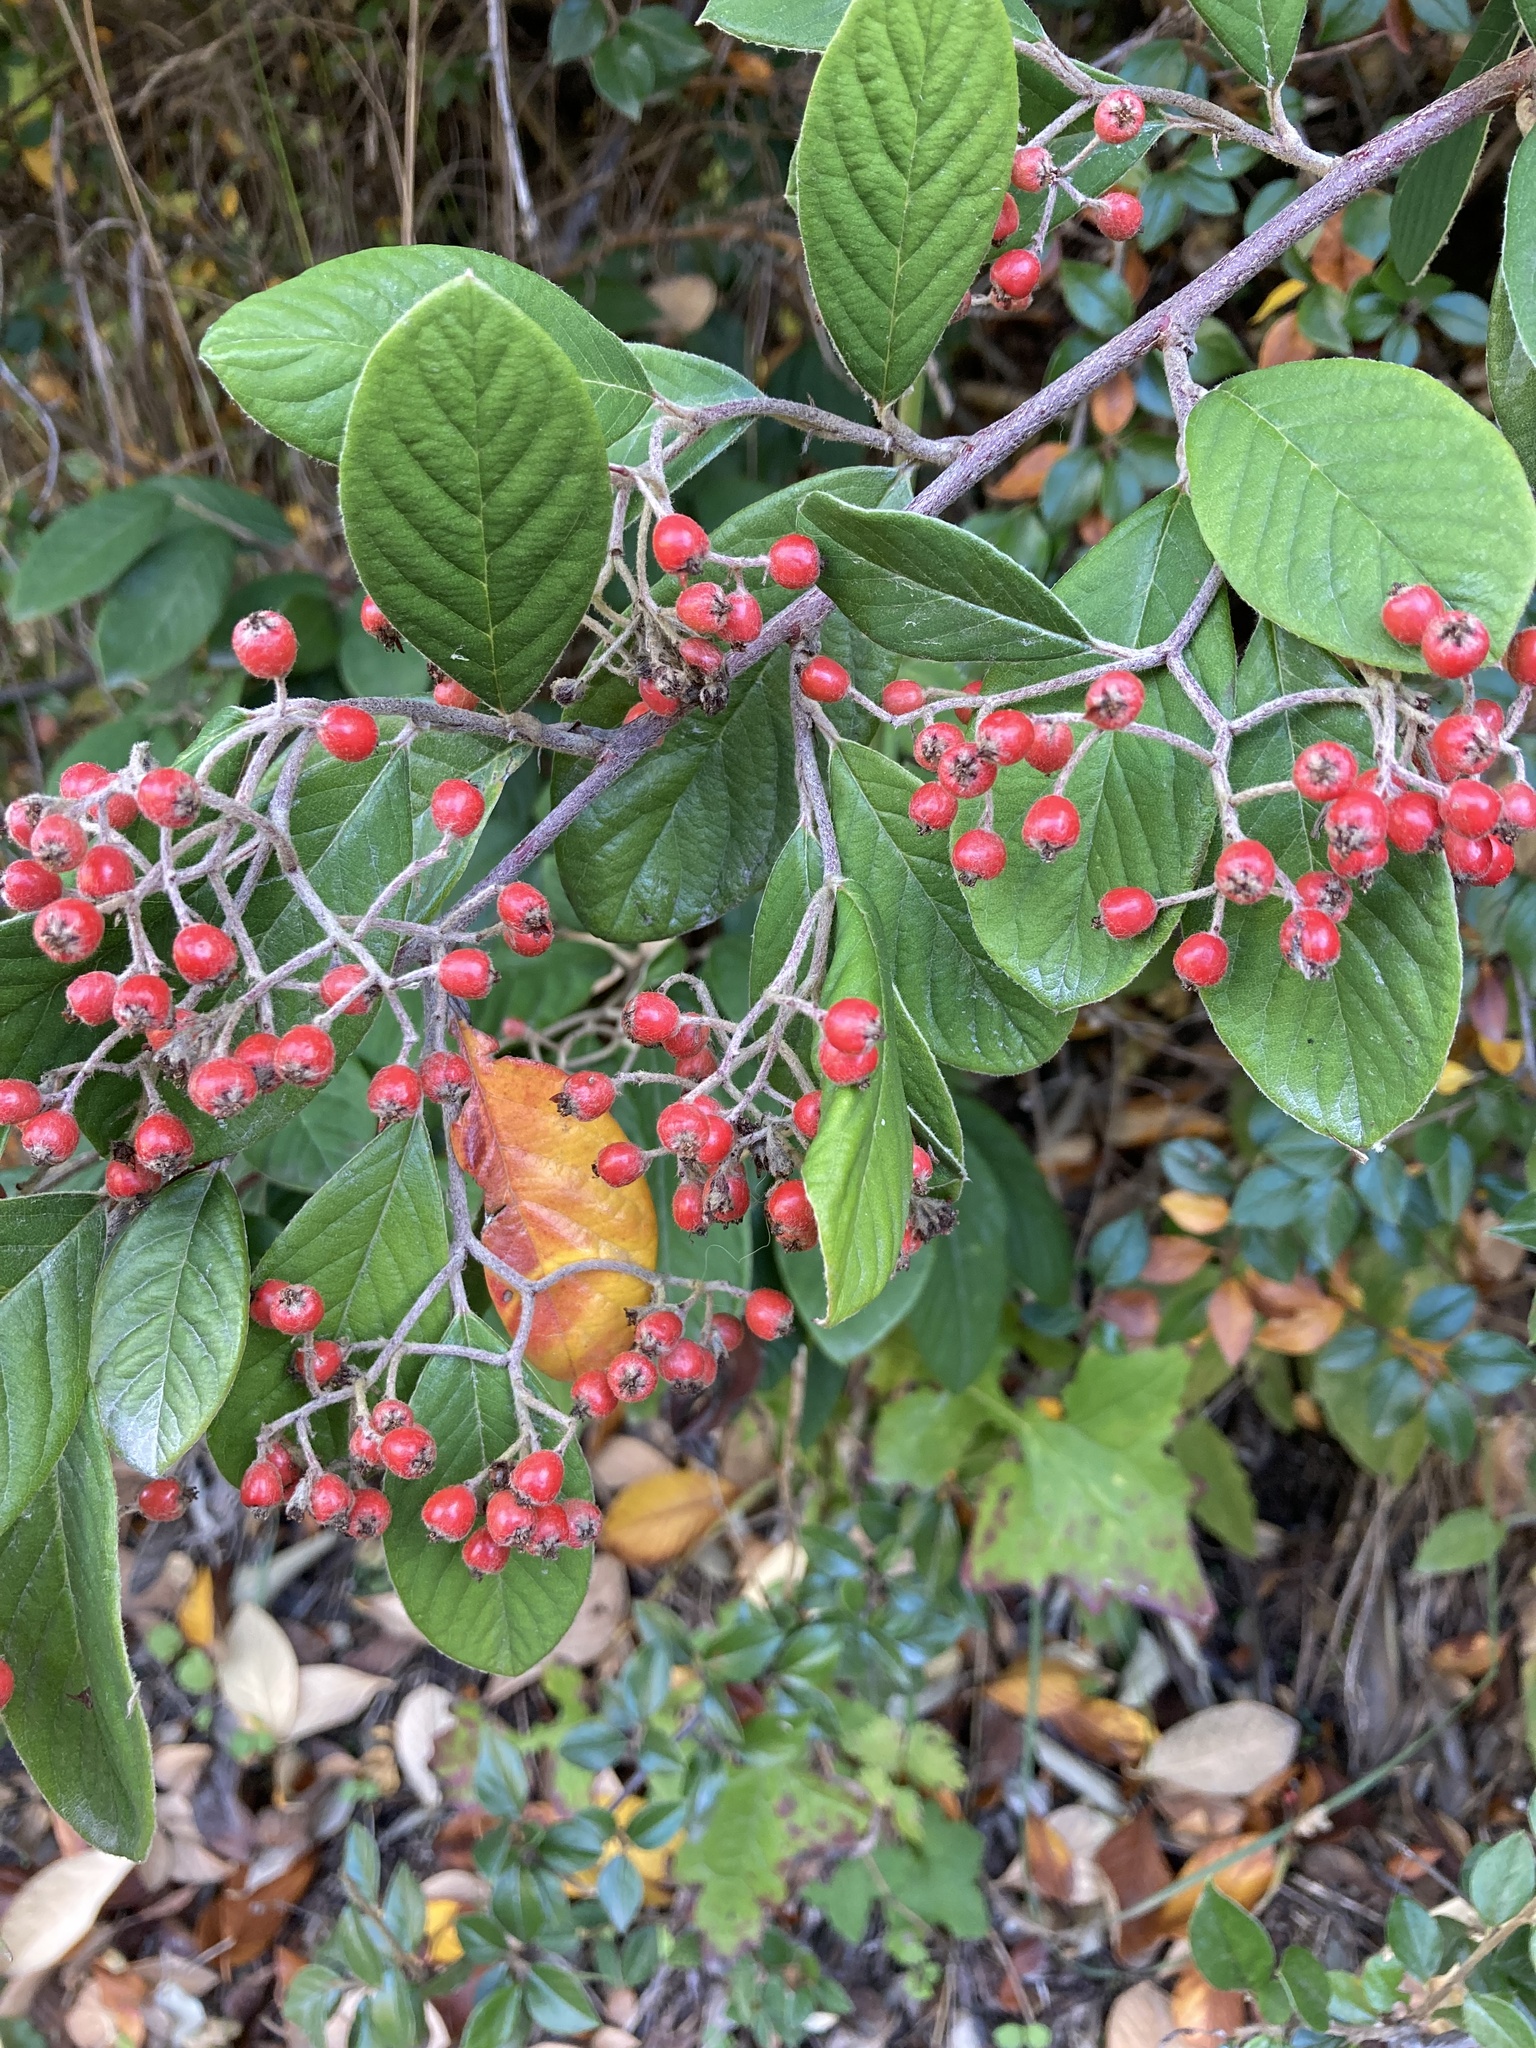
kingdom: Plantae
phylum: Tracheophyta
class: Magnoliopsida
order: Rosales
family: Rosaceae
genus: Cotoneaster
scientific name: Cotoneaster coriaceus
